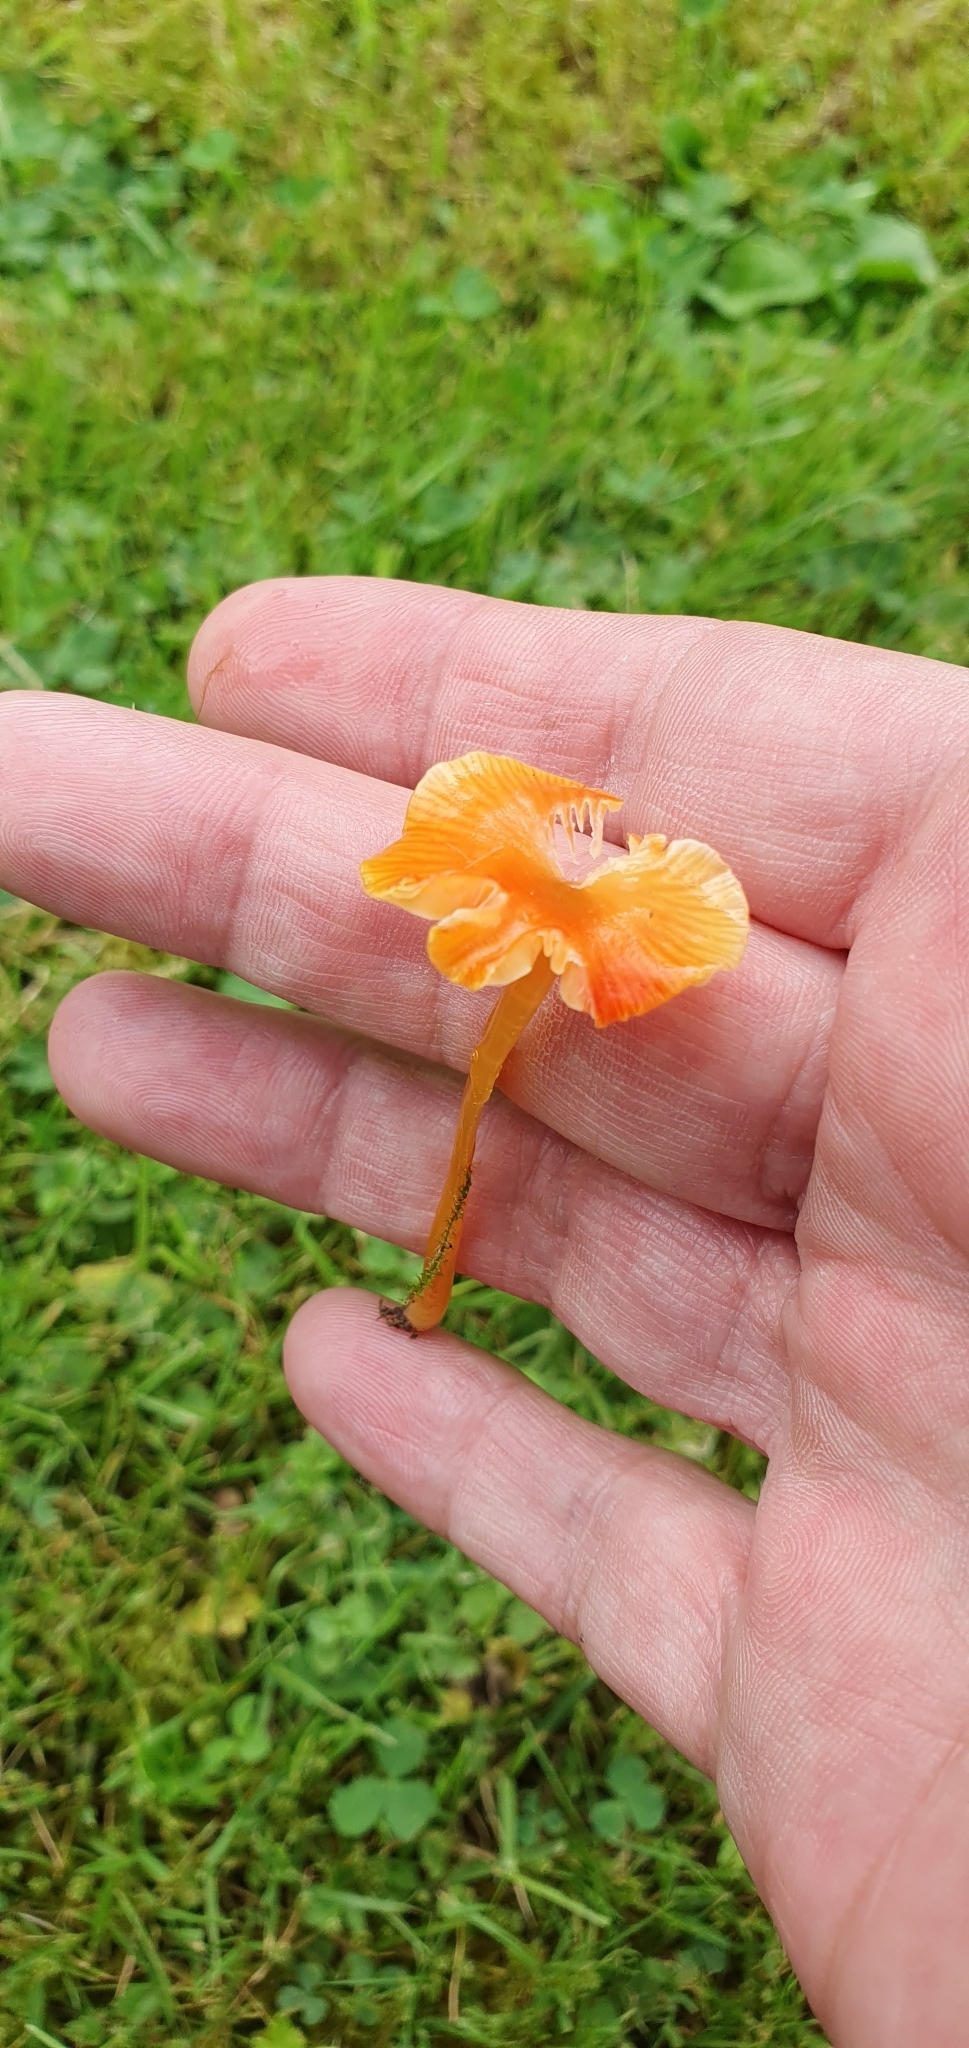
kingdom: Fungi
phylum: Basidiomycota
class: Agaricomycetes
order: Agaricales
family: Hygrophoraceae
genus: Hygrocybe
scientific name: Hygrocybe glutinipes
